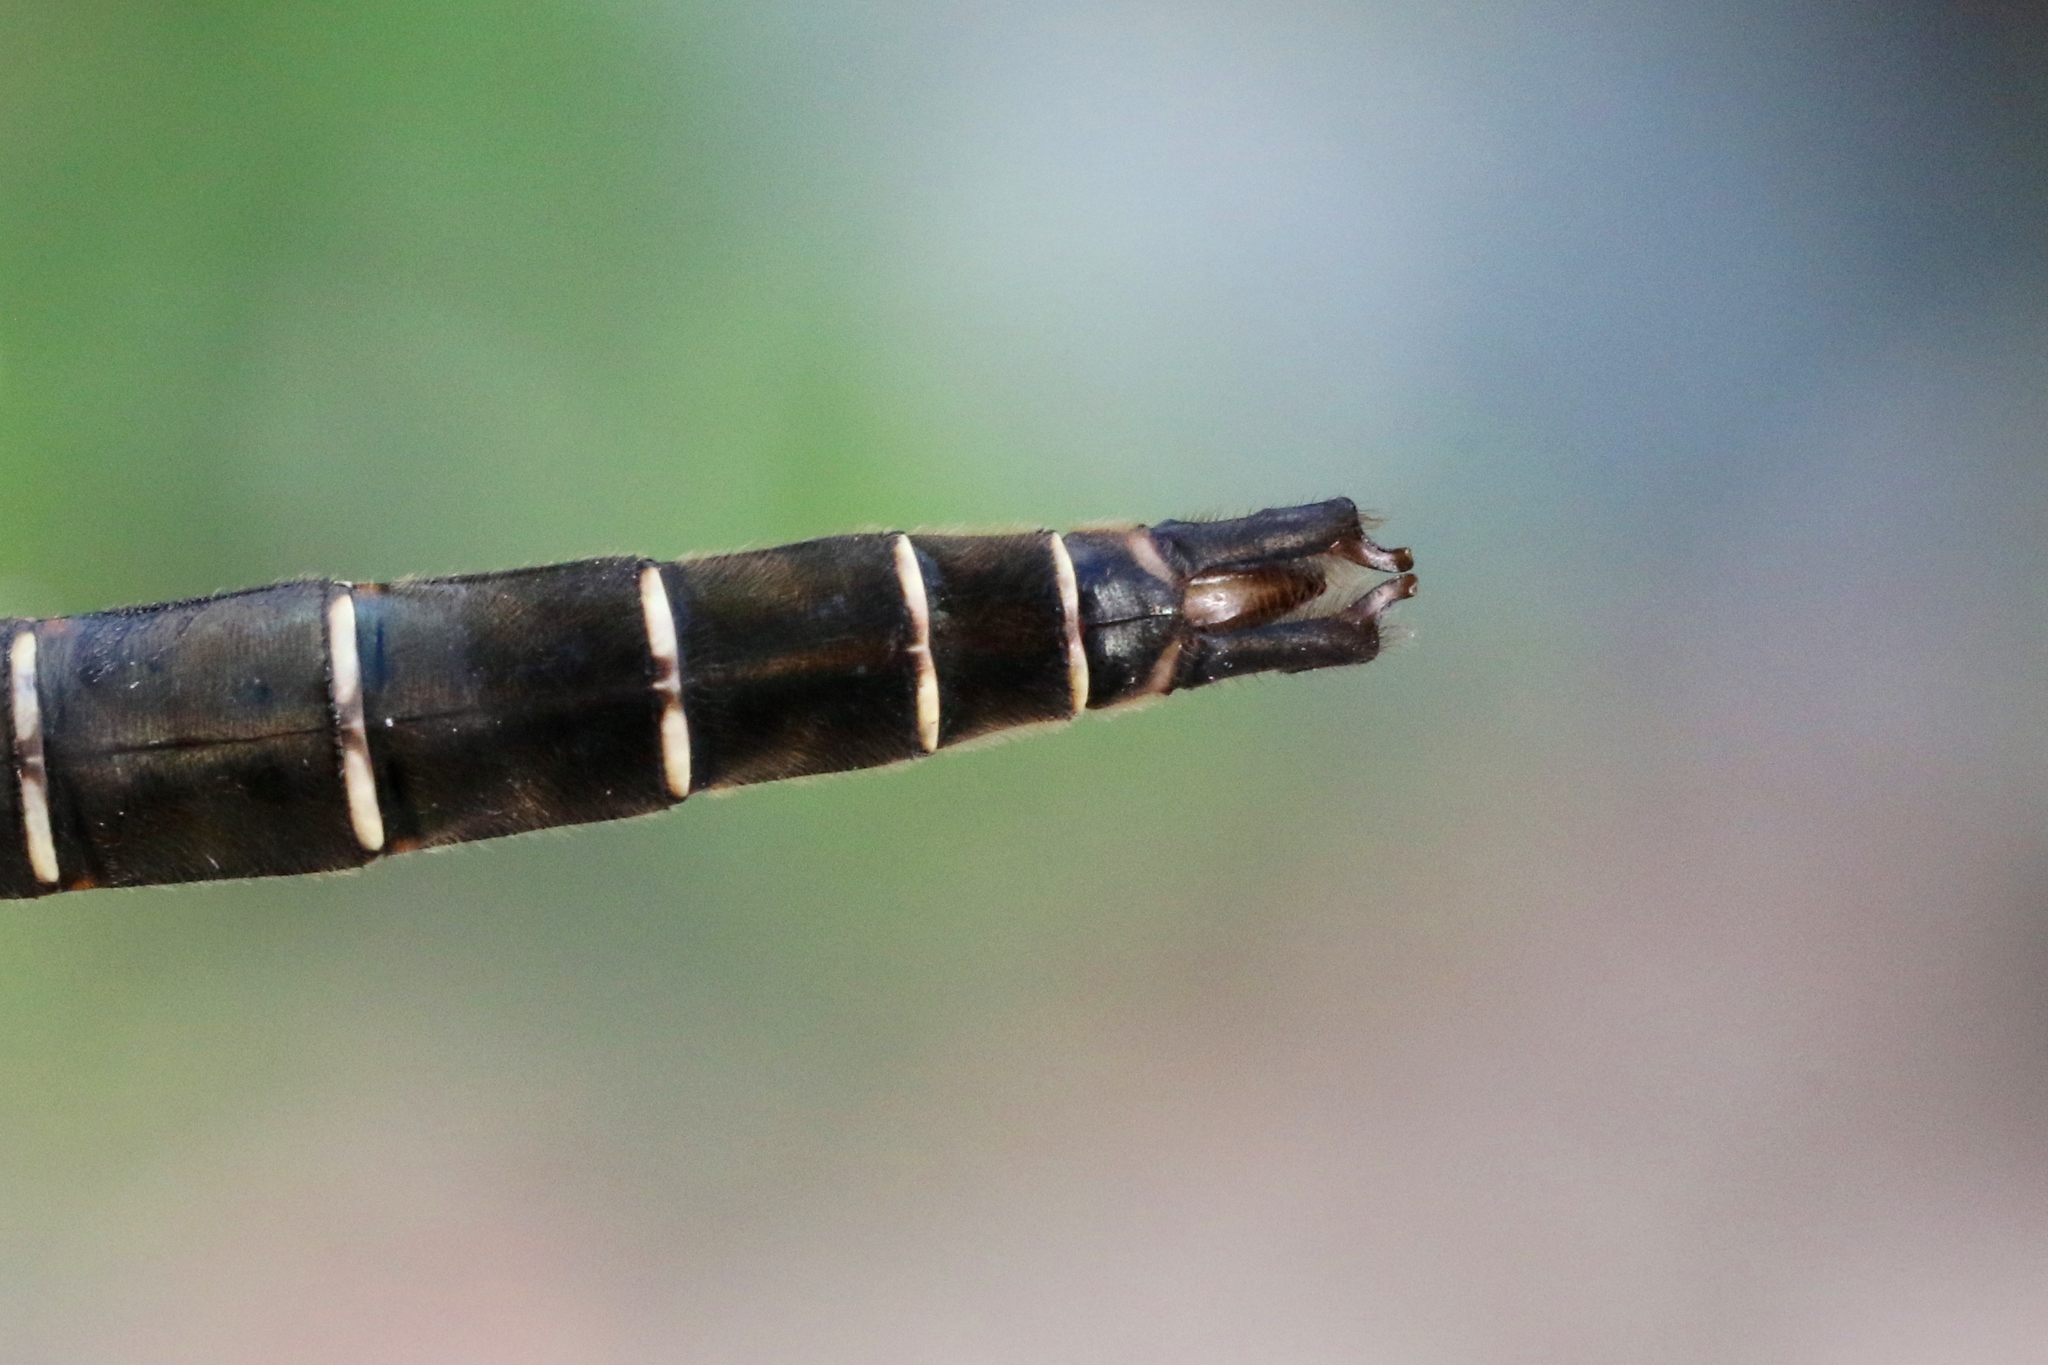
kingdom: Animalia
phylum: Arthropoda
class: Insecta
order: Odonata
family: Corduliidae
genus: Somatochlora
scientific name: Somatochlora albicincta
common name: Ringed emerald
